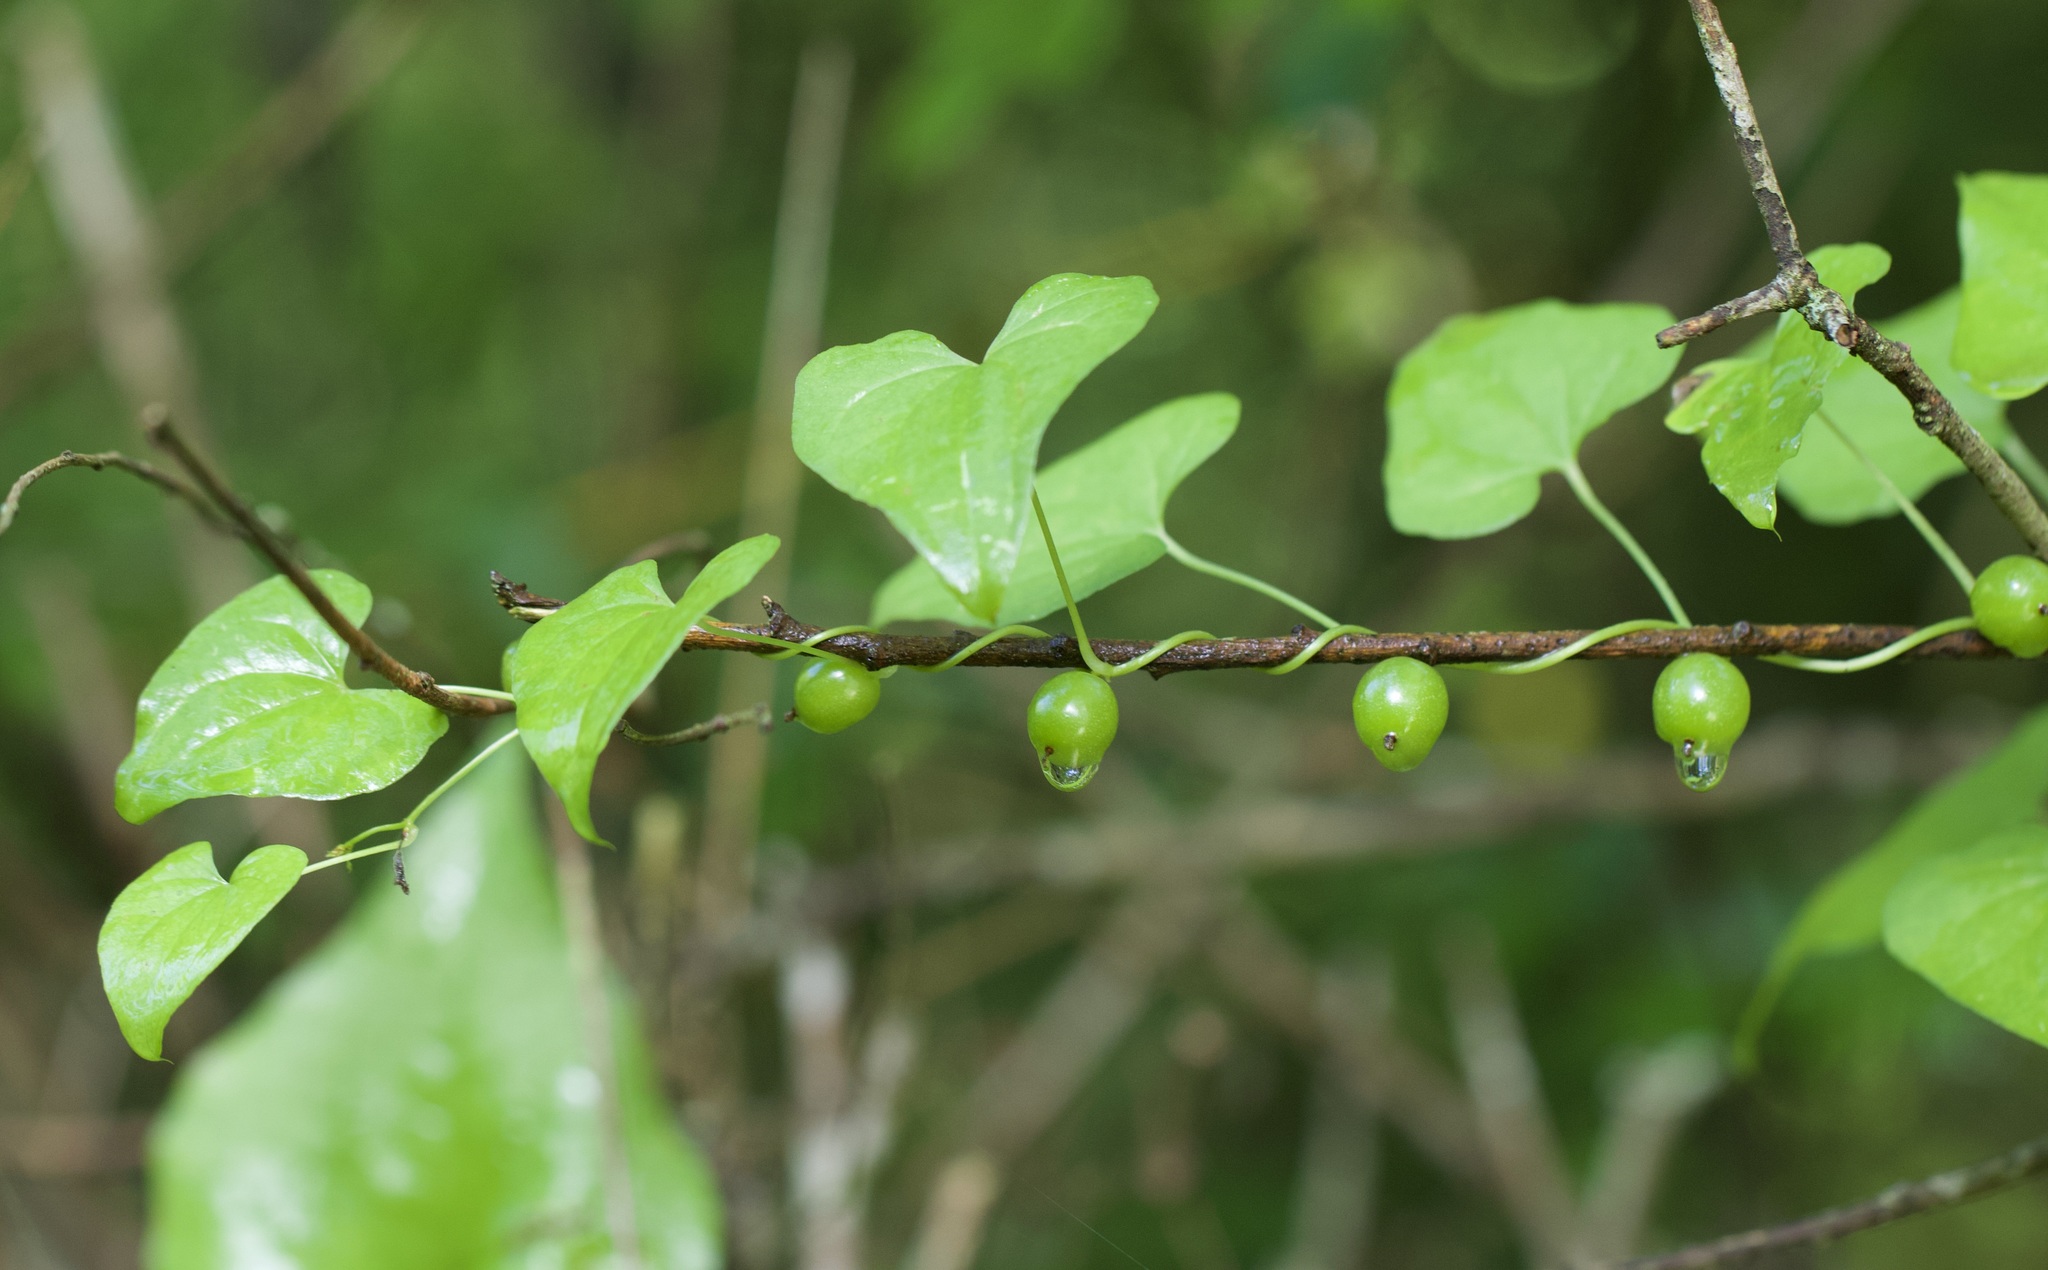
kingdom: Plantae
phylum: Tracheophyta
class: Liliopsida
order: Dioscoreales
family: Dioscoreaceae
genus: Dioscorea
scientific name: Dioscorea communis
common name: Black-bindweed
